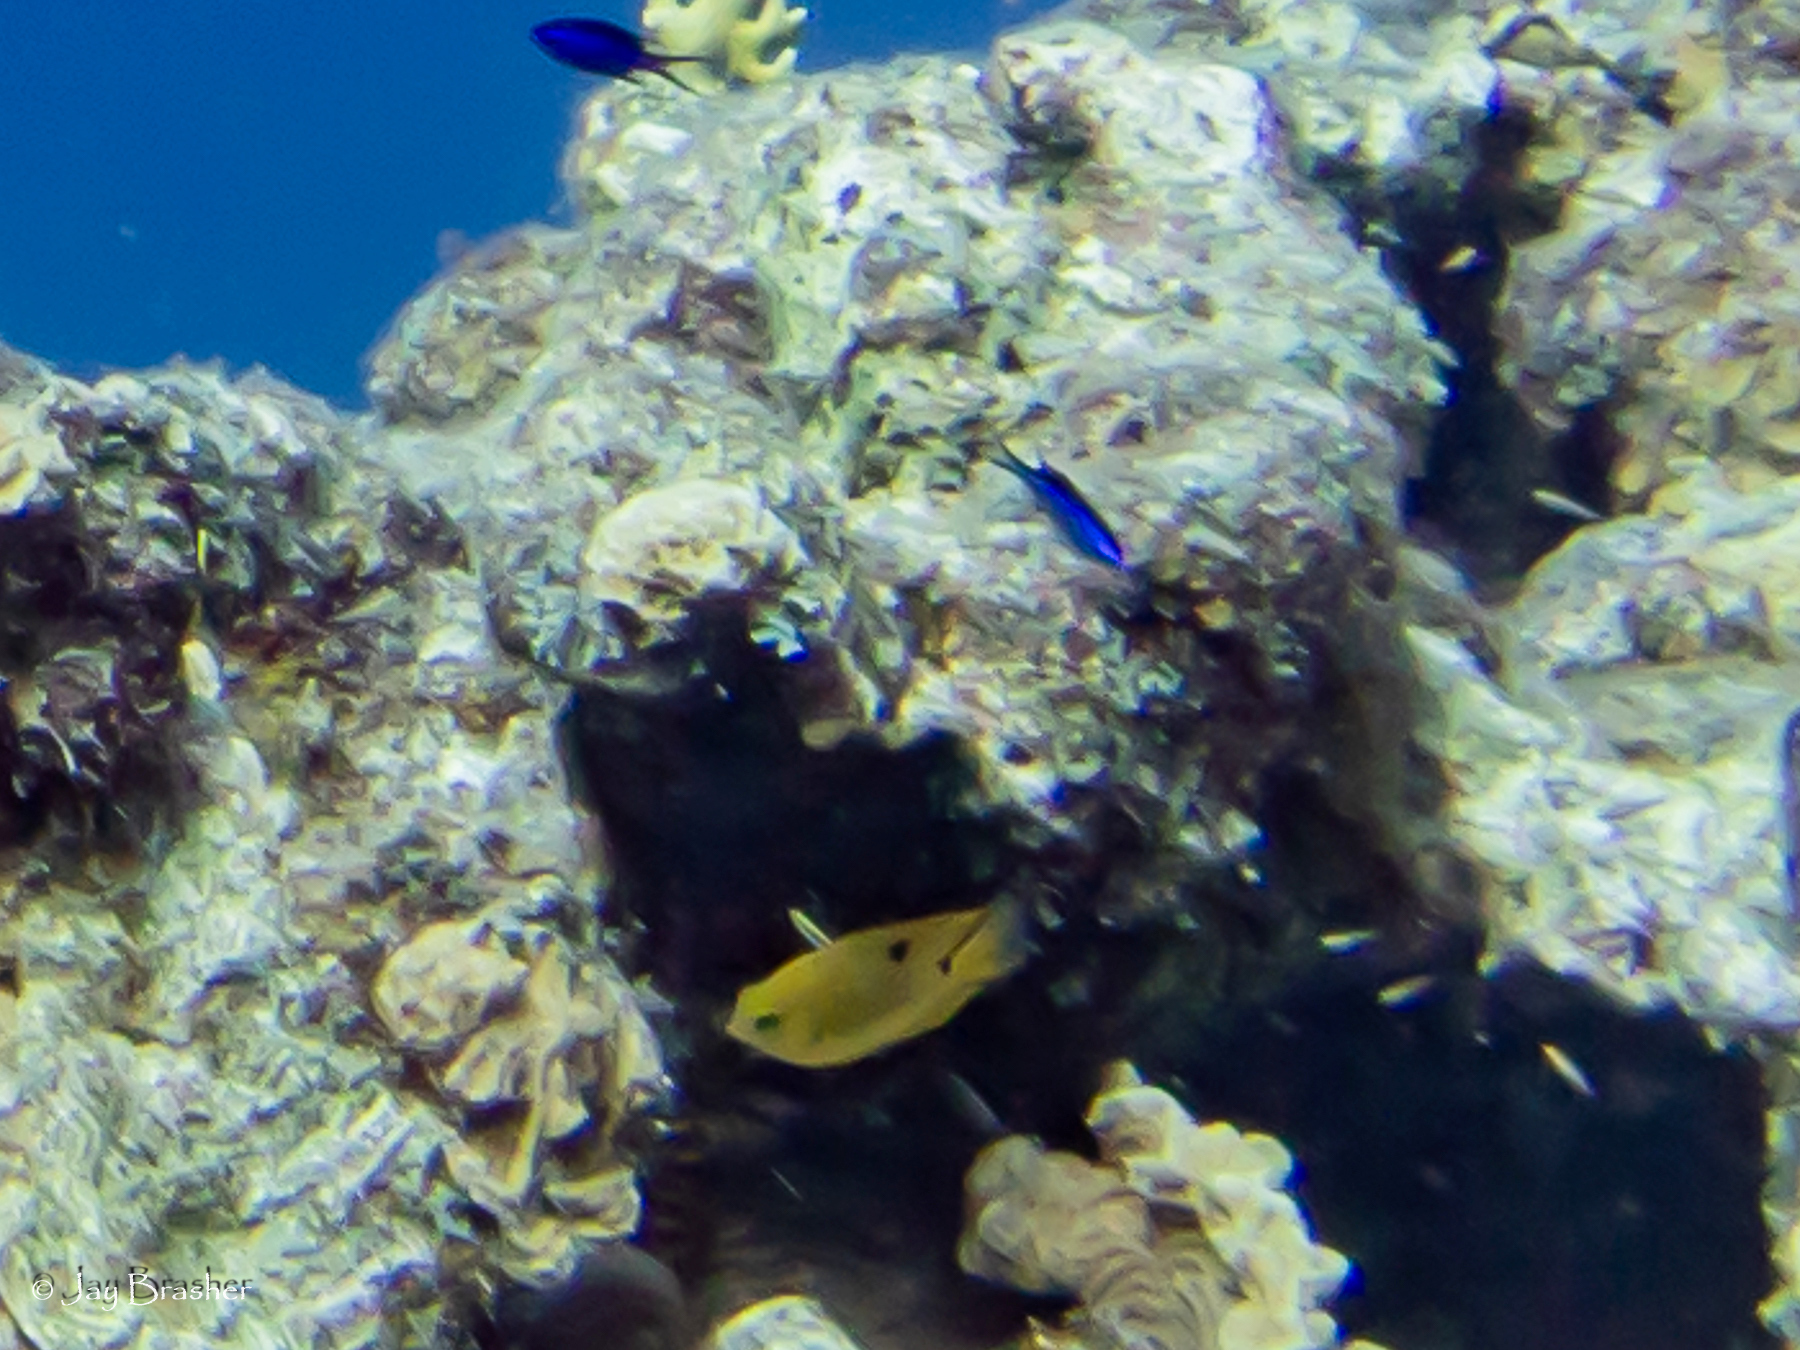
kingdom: Animalia
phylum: Chordata
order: Perciformes
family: Pomacentridae
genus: Stegastes
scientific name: Stegastes planifrons
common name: Threespot damselfish
